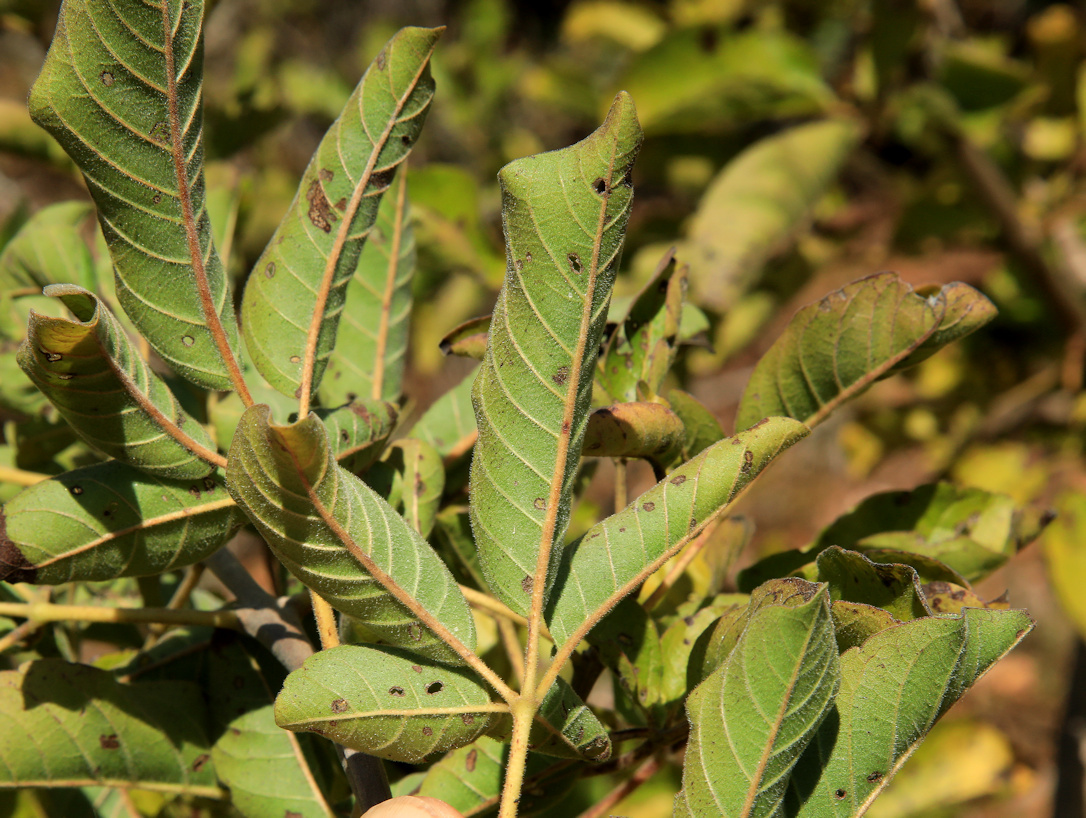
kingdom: Plantae
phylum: Tracheophyta
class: Magnoliopsida
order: Lamiales
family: Lamiaceae
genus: Vitex
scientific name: Vitex obovata
